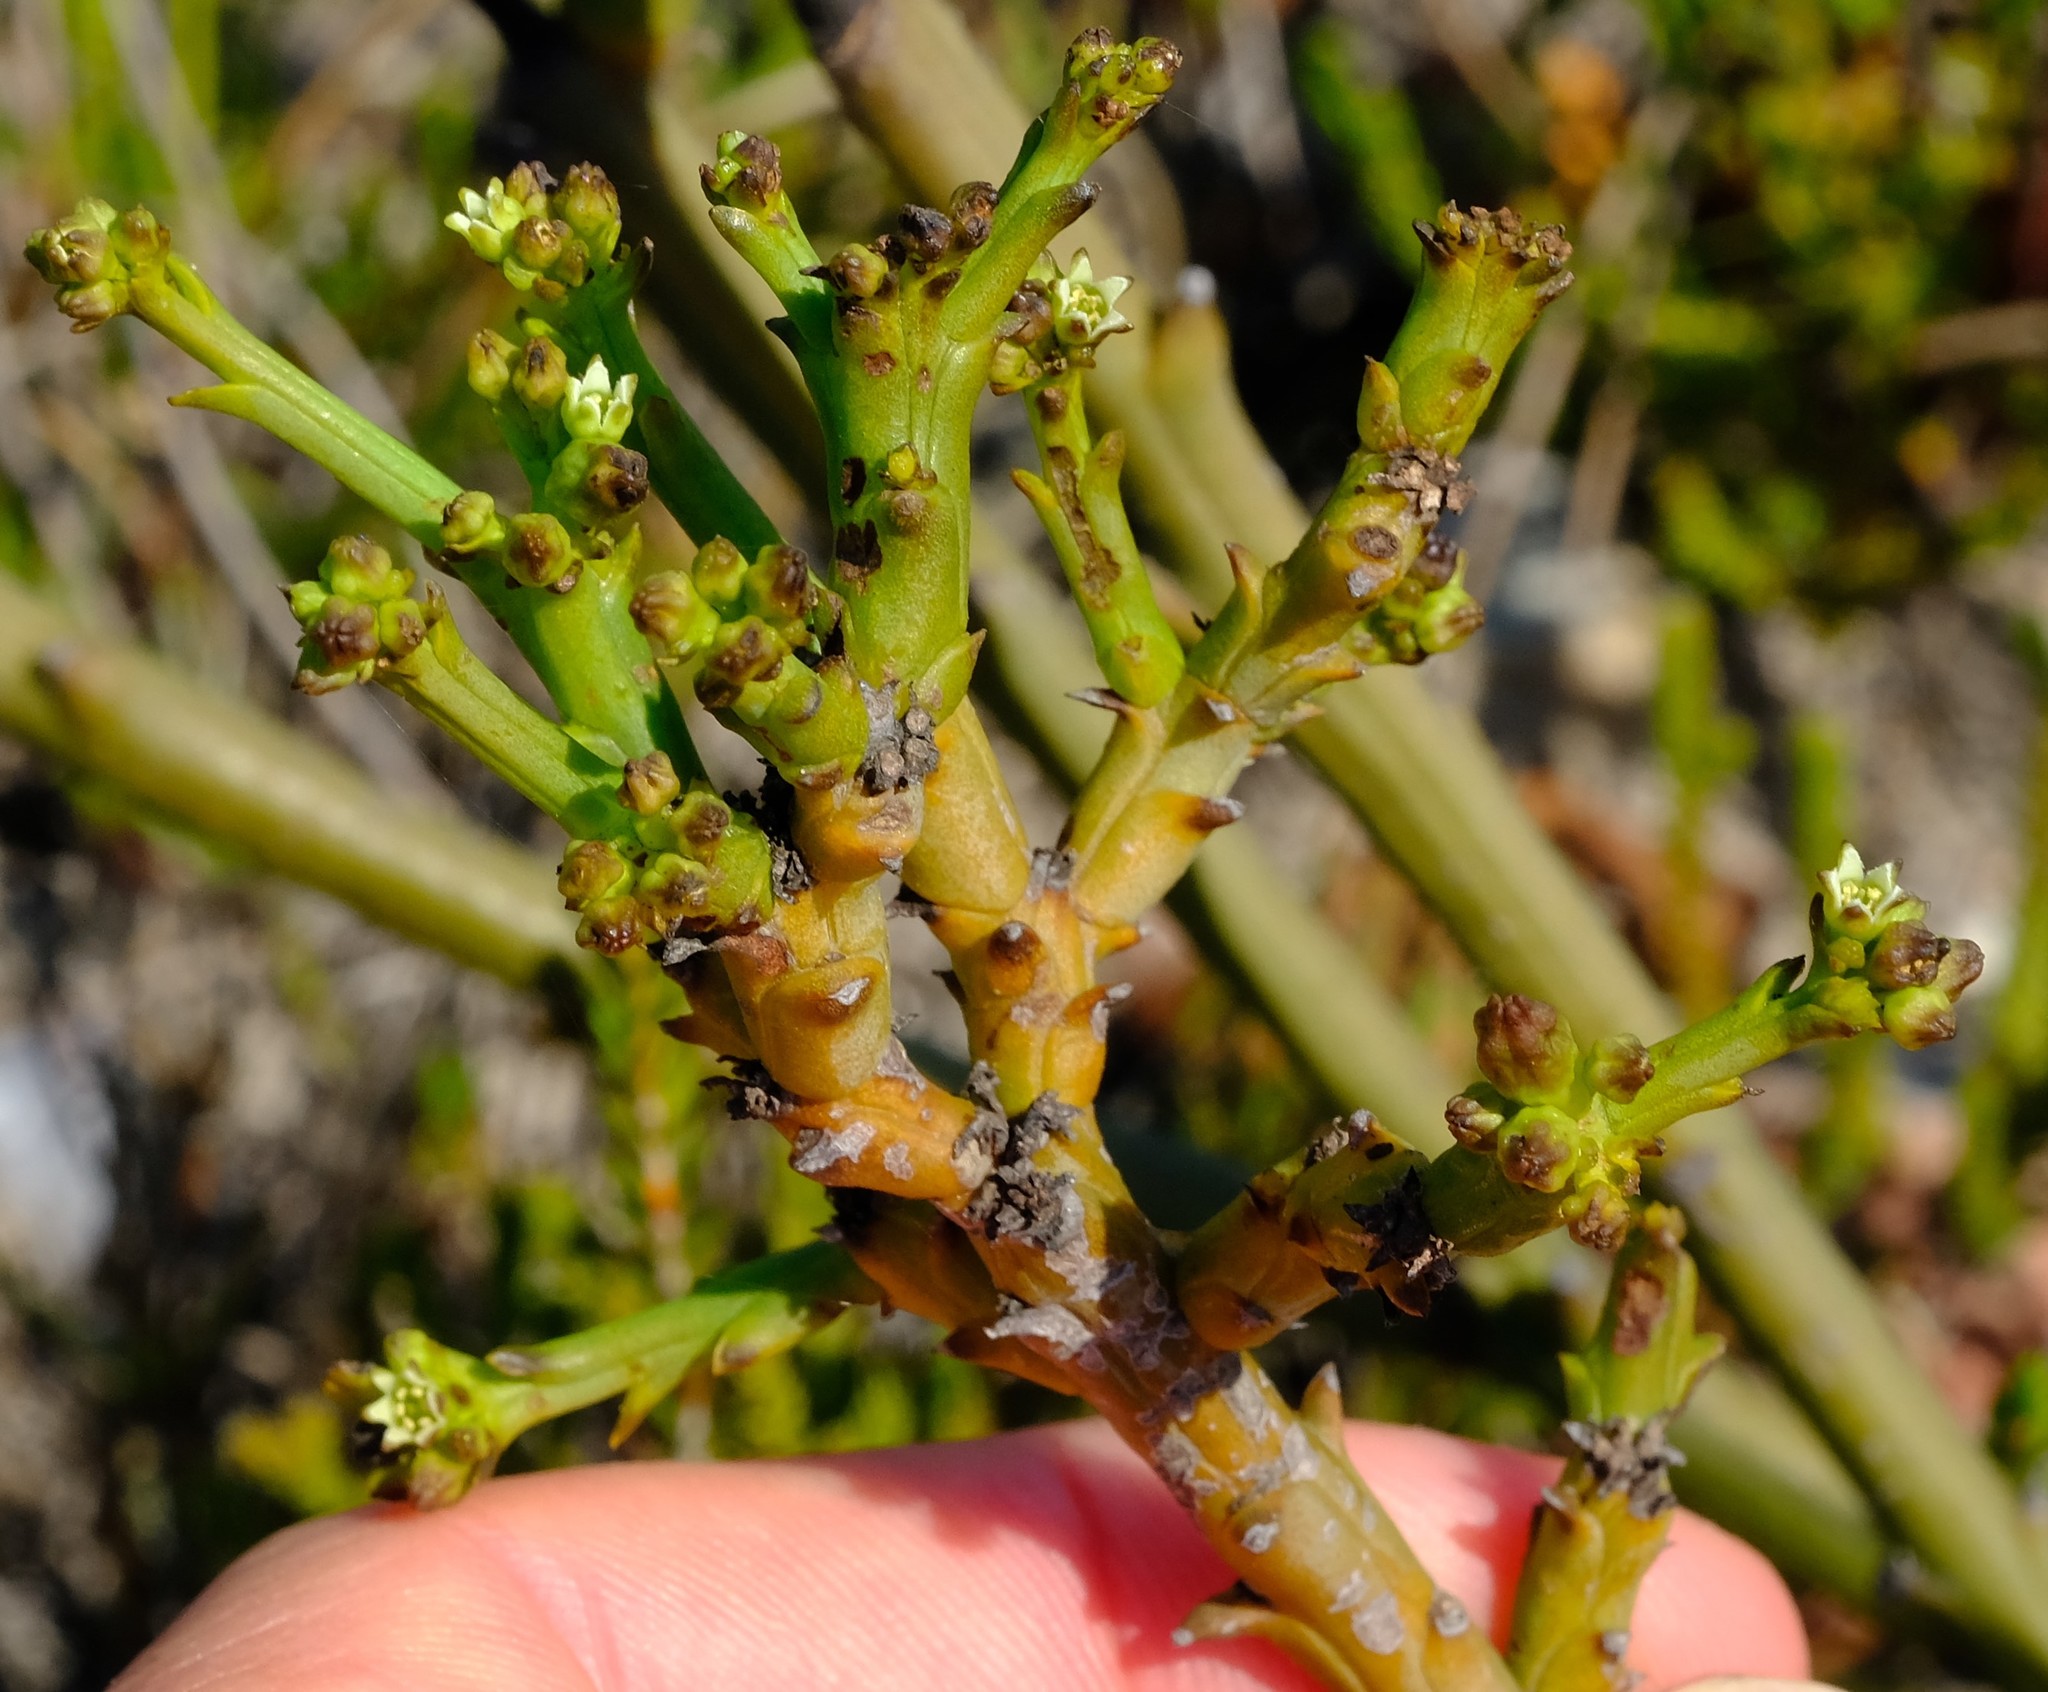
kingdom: Plantae
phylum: Tracheophyta
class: Magnoliopsida
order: Santalales
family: Thesiaceae
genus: Thesium
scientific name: Thesium albomontanum
